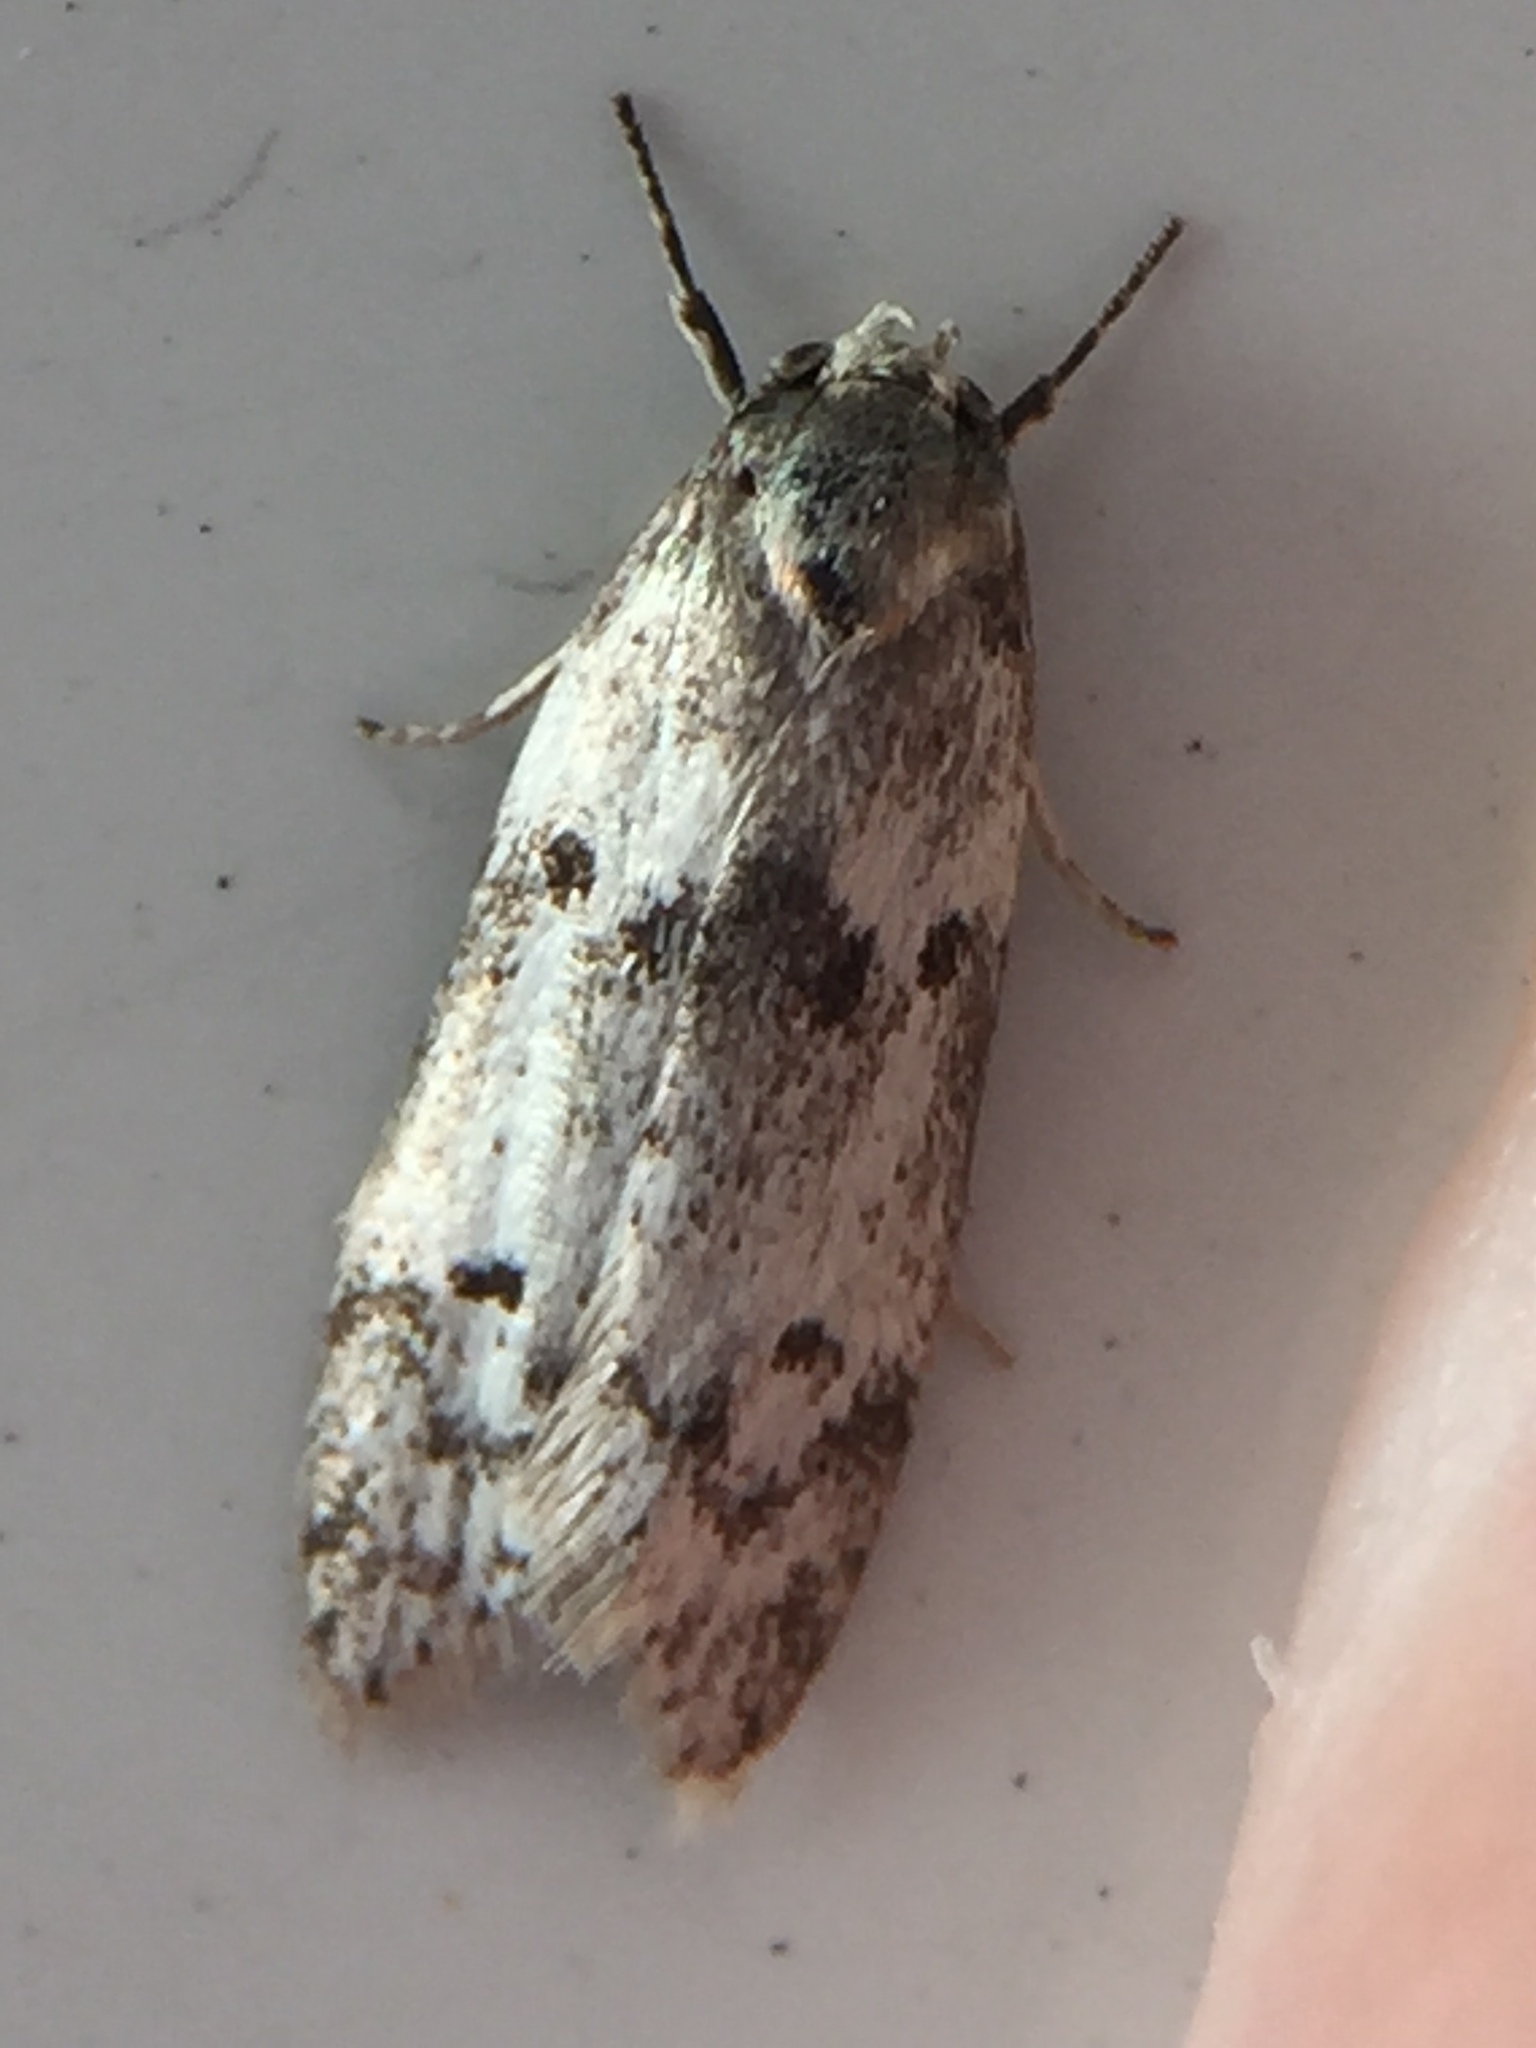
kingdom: Animalia
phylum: Arthropoda
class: Insecta
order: Lepidoptera
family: Oecophoridae
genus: Trachypepla
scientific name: Trachypepla indolescens
